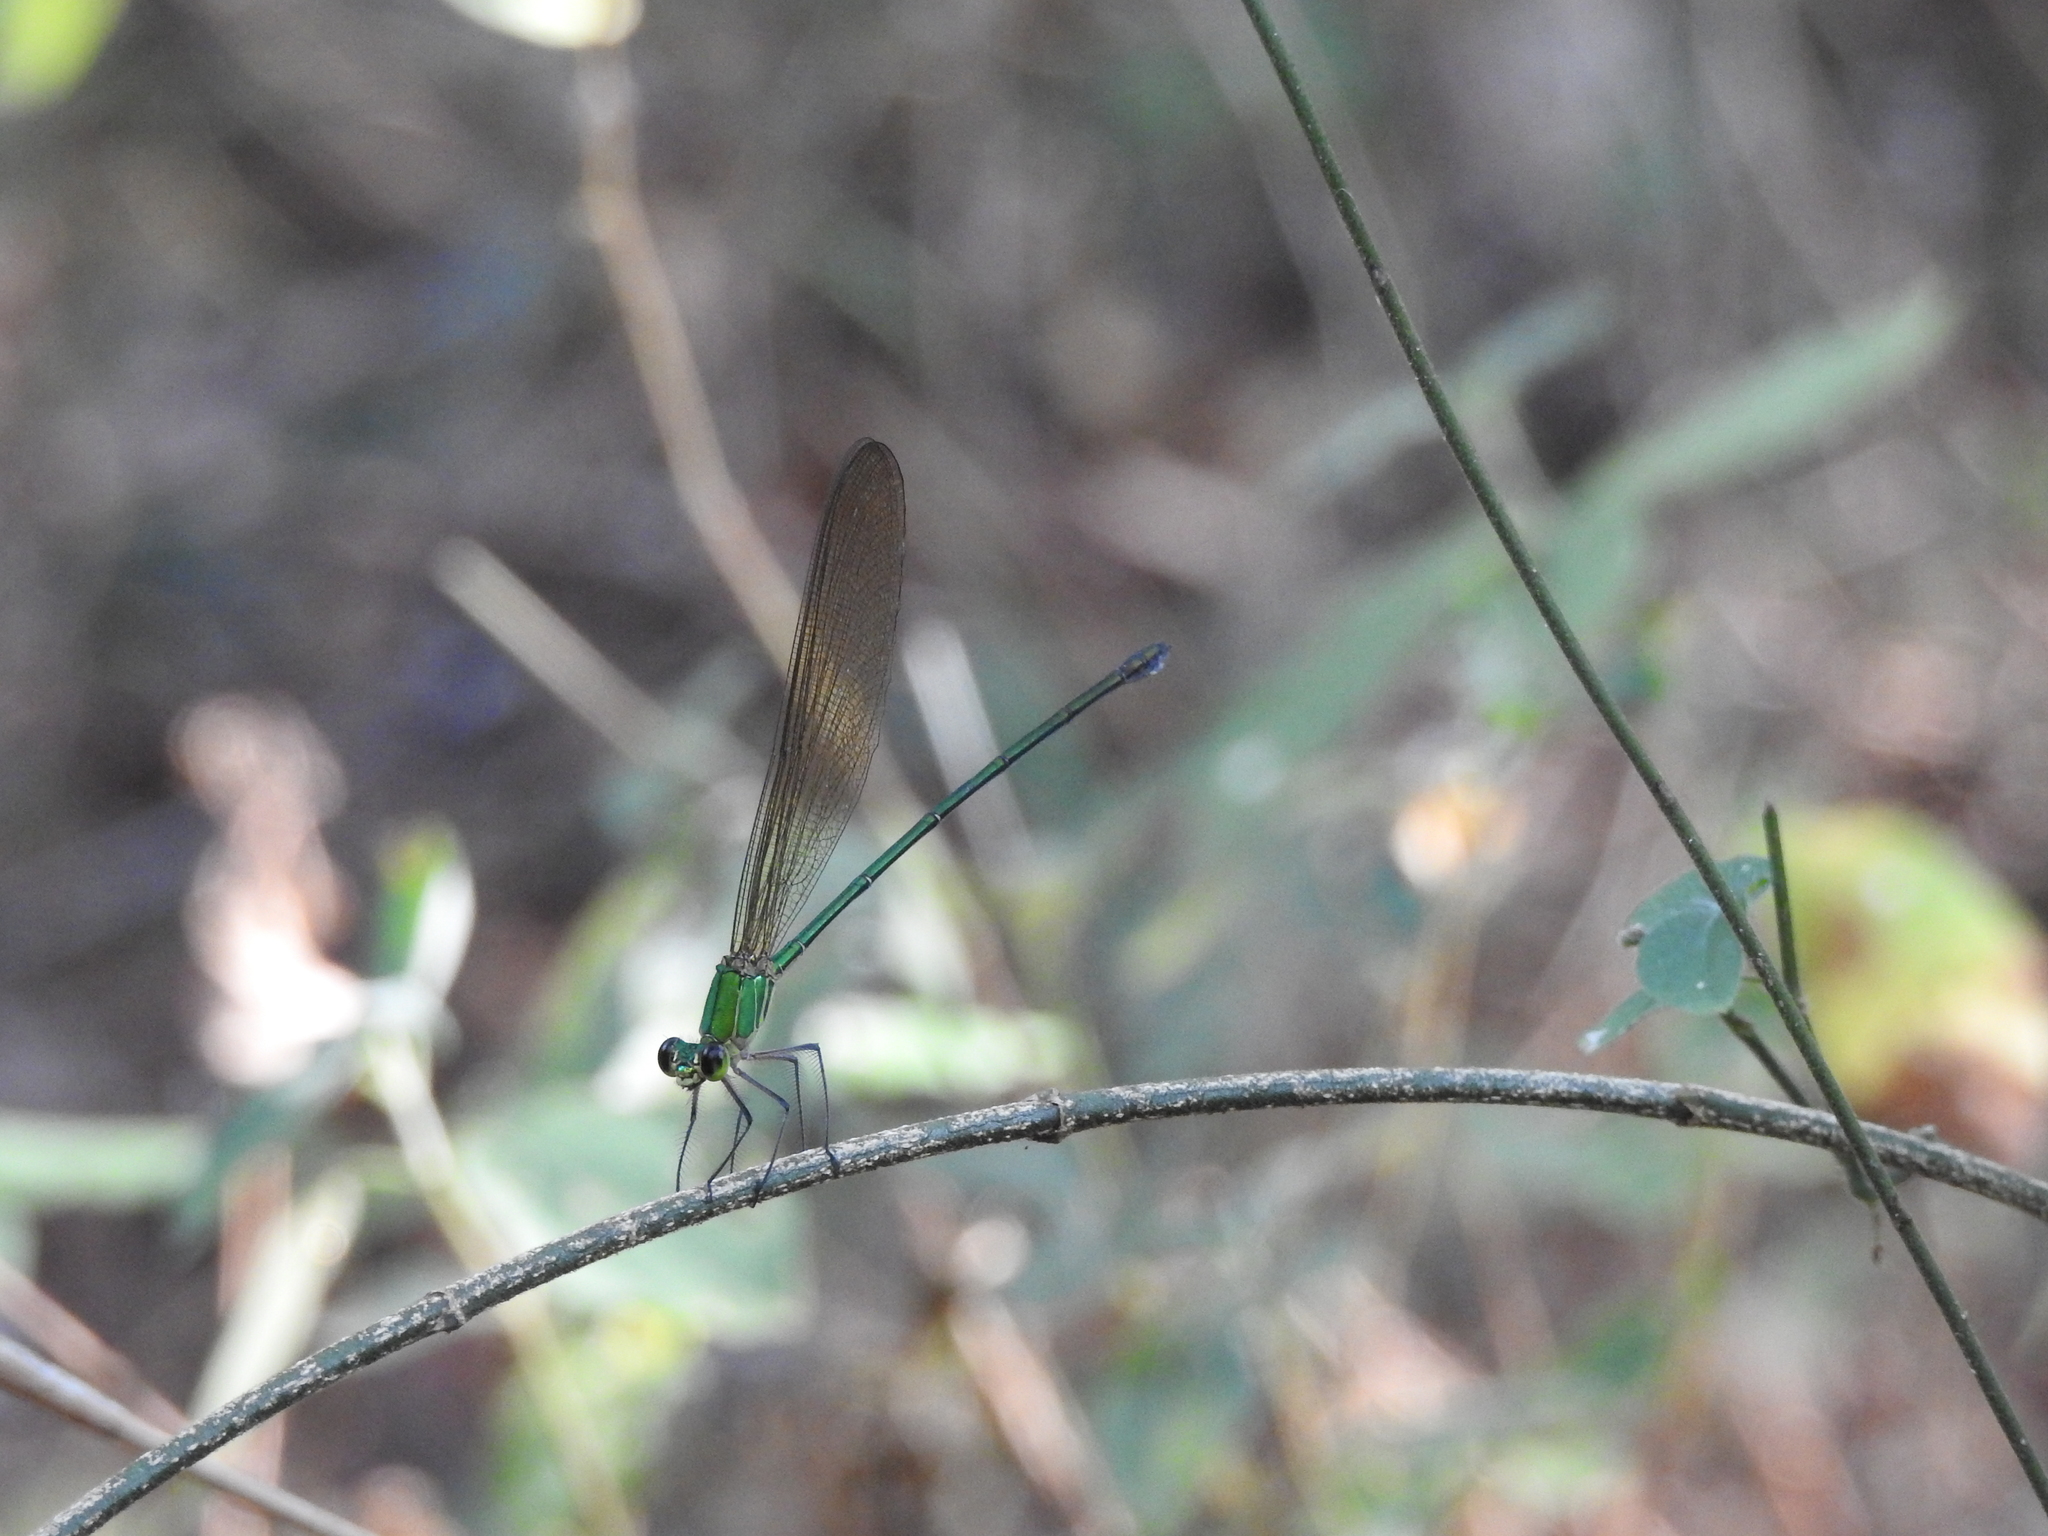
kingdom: Animalia
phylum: Arthropoda
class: Insecta
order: Odonata
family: Calopterygidae
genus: Vestalis
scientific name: Vestalis gracilis
